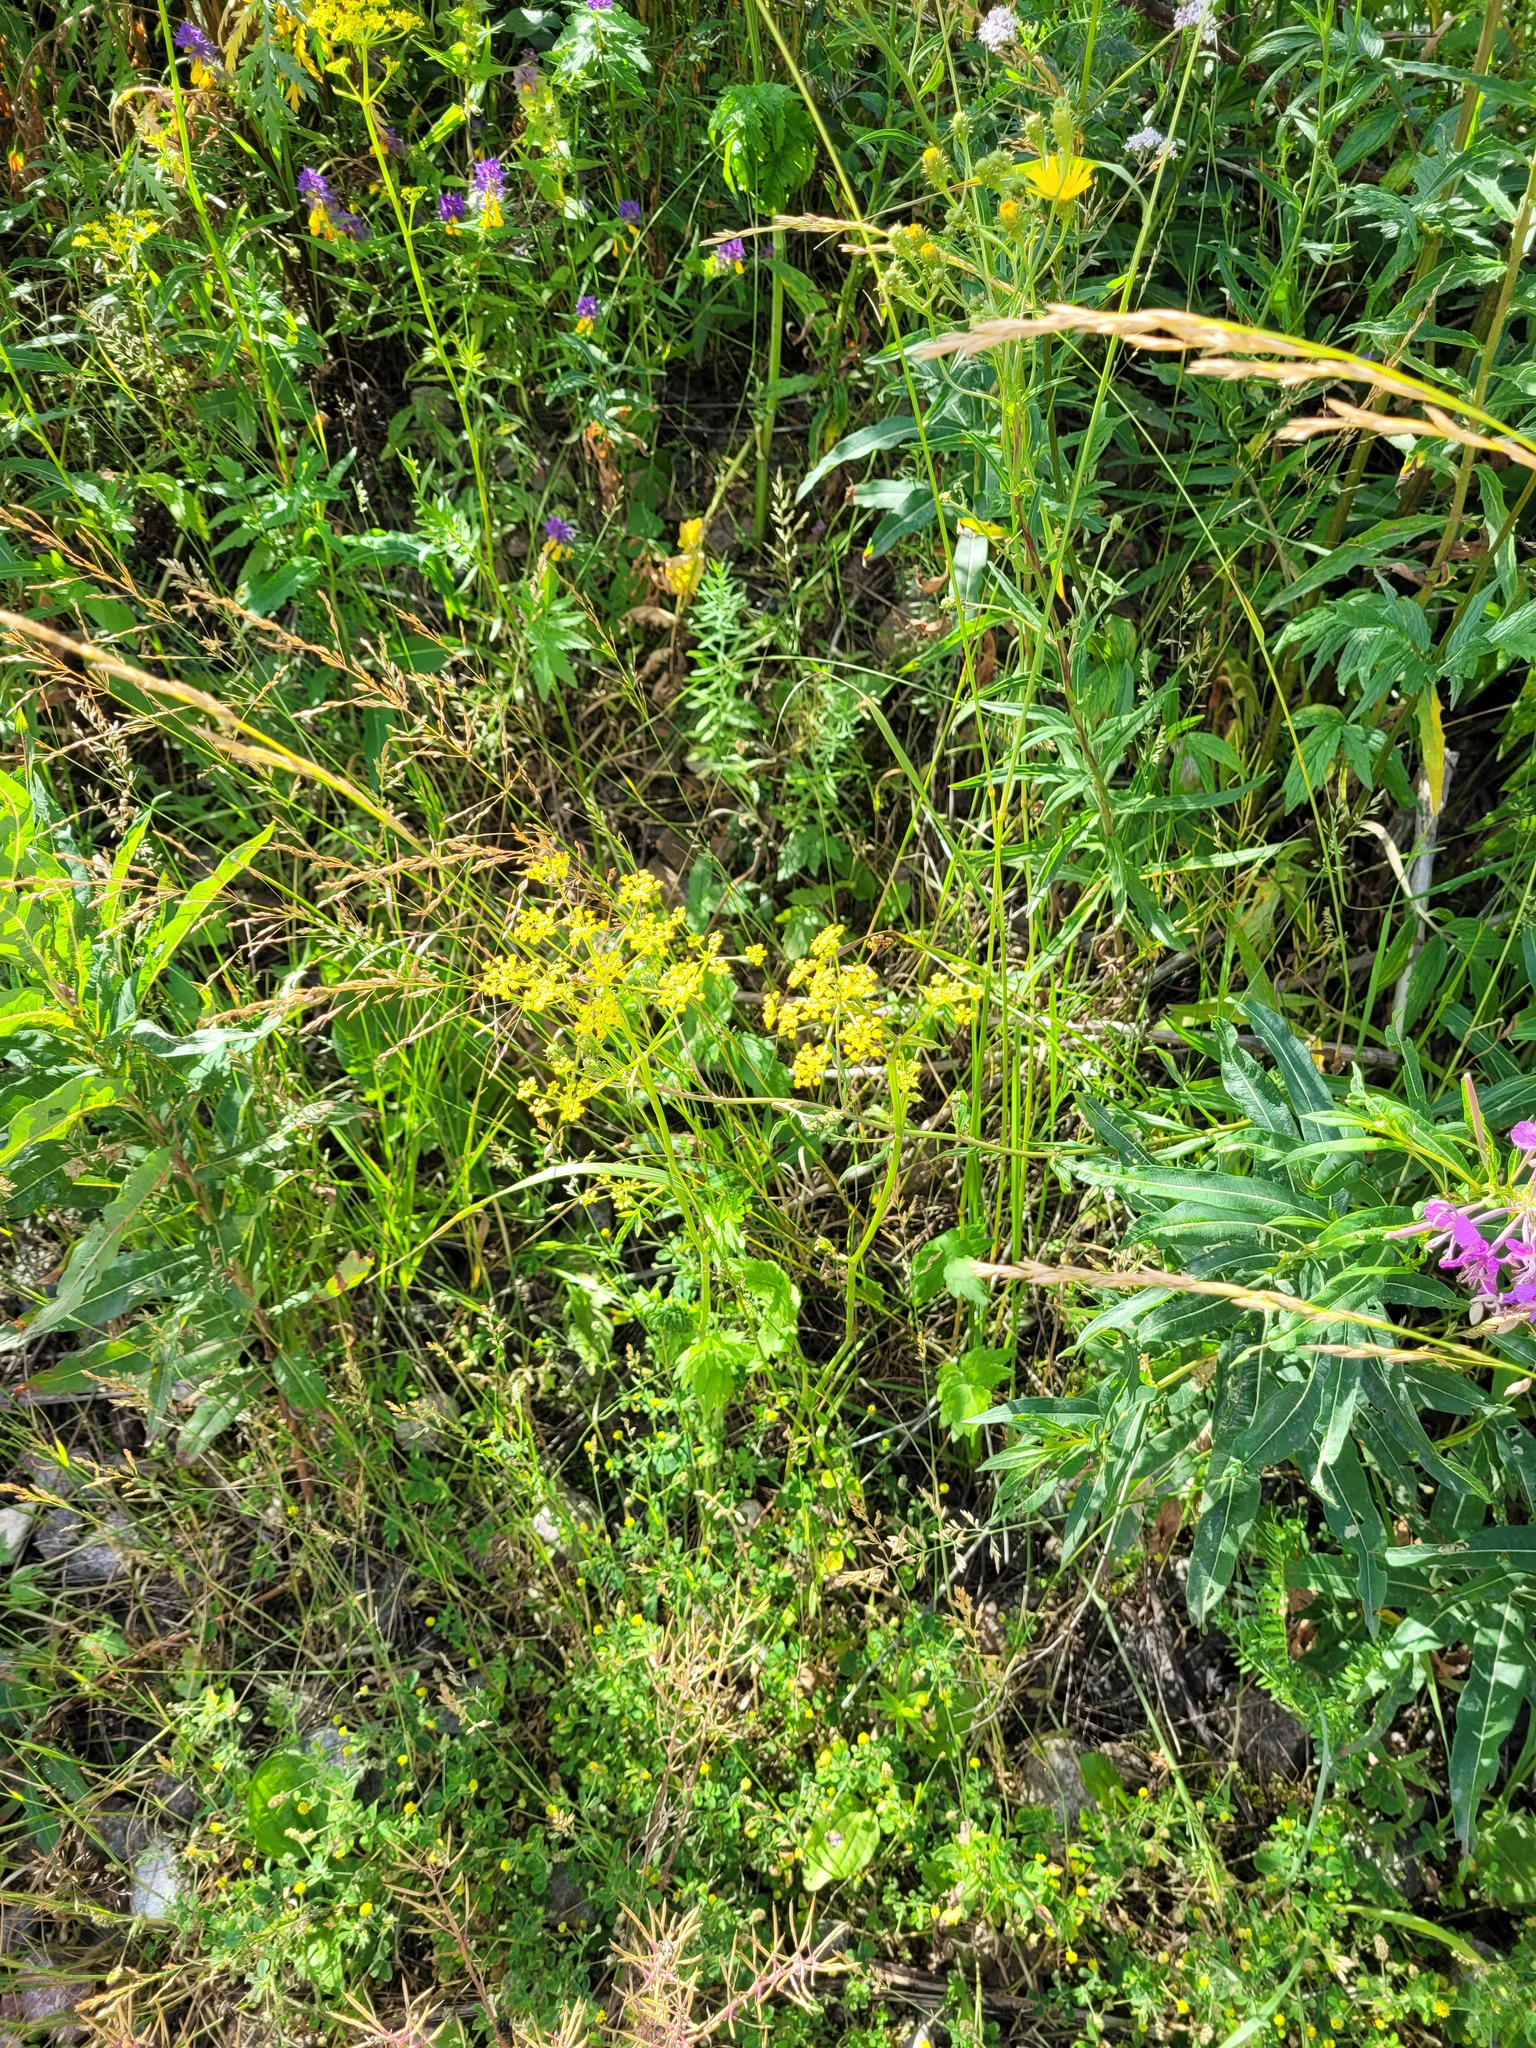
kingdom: Plantae
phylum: Tracheophyta
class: Magnoliopsida
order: Apiales
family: Apiaceae
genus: Pastinaca
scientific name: Pastinaca sativa
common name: Wild parsnip
